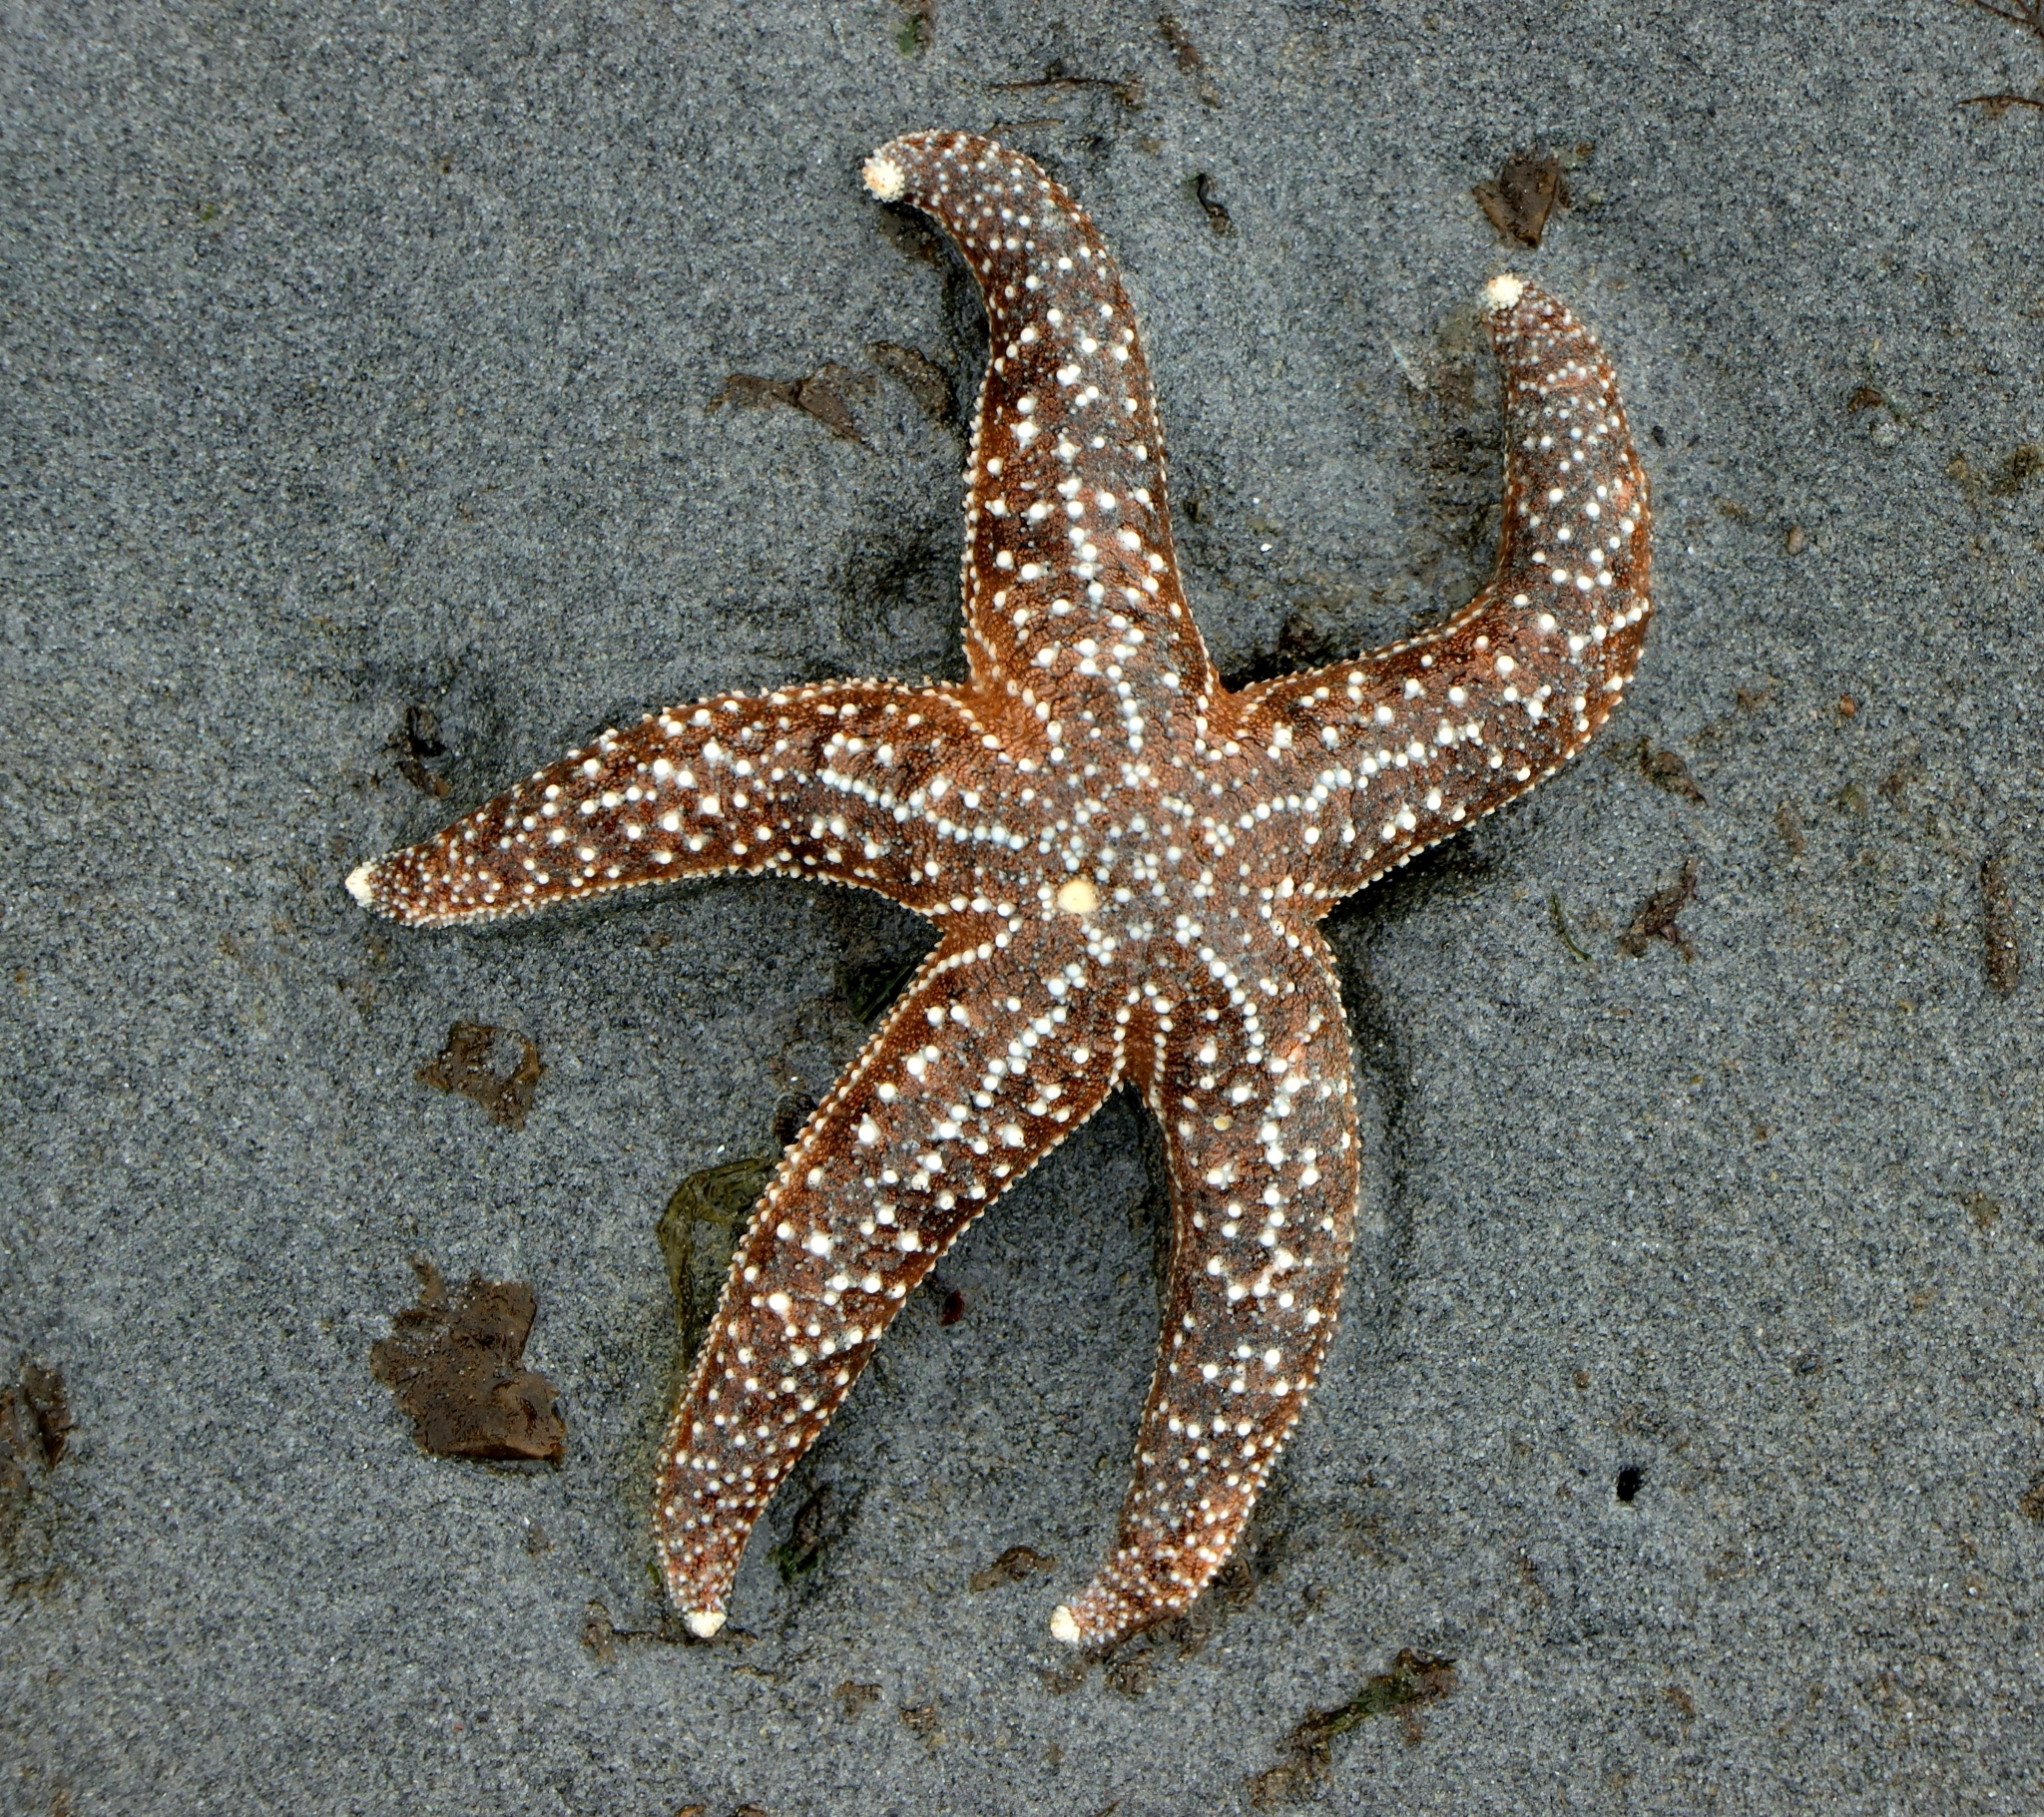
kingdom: Animalia
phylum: Echinodermata
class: Asteroidea
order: Forcipulatida
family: Asteriidae
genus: Evasterias
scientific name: Evasterias troschelii
